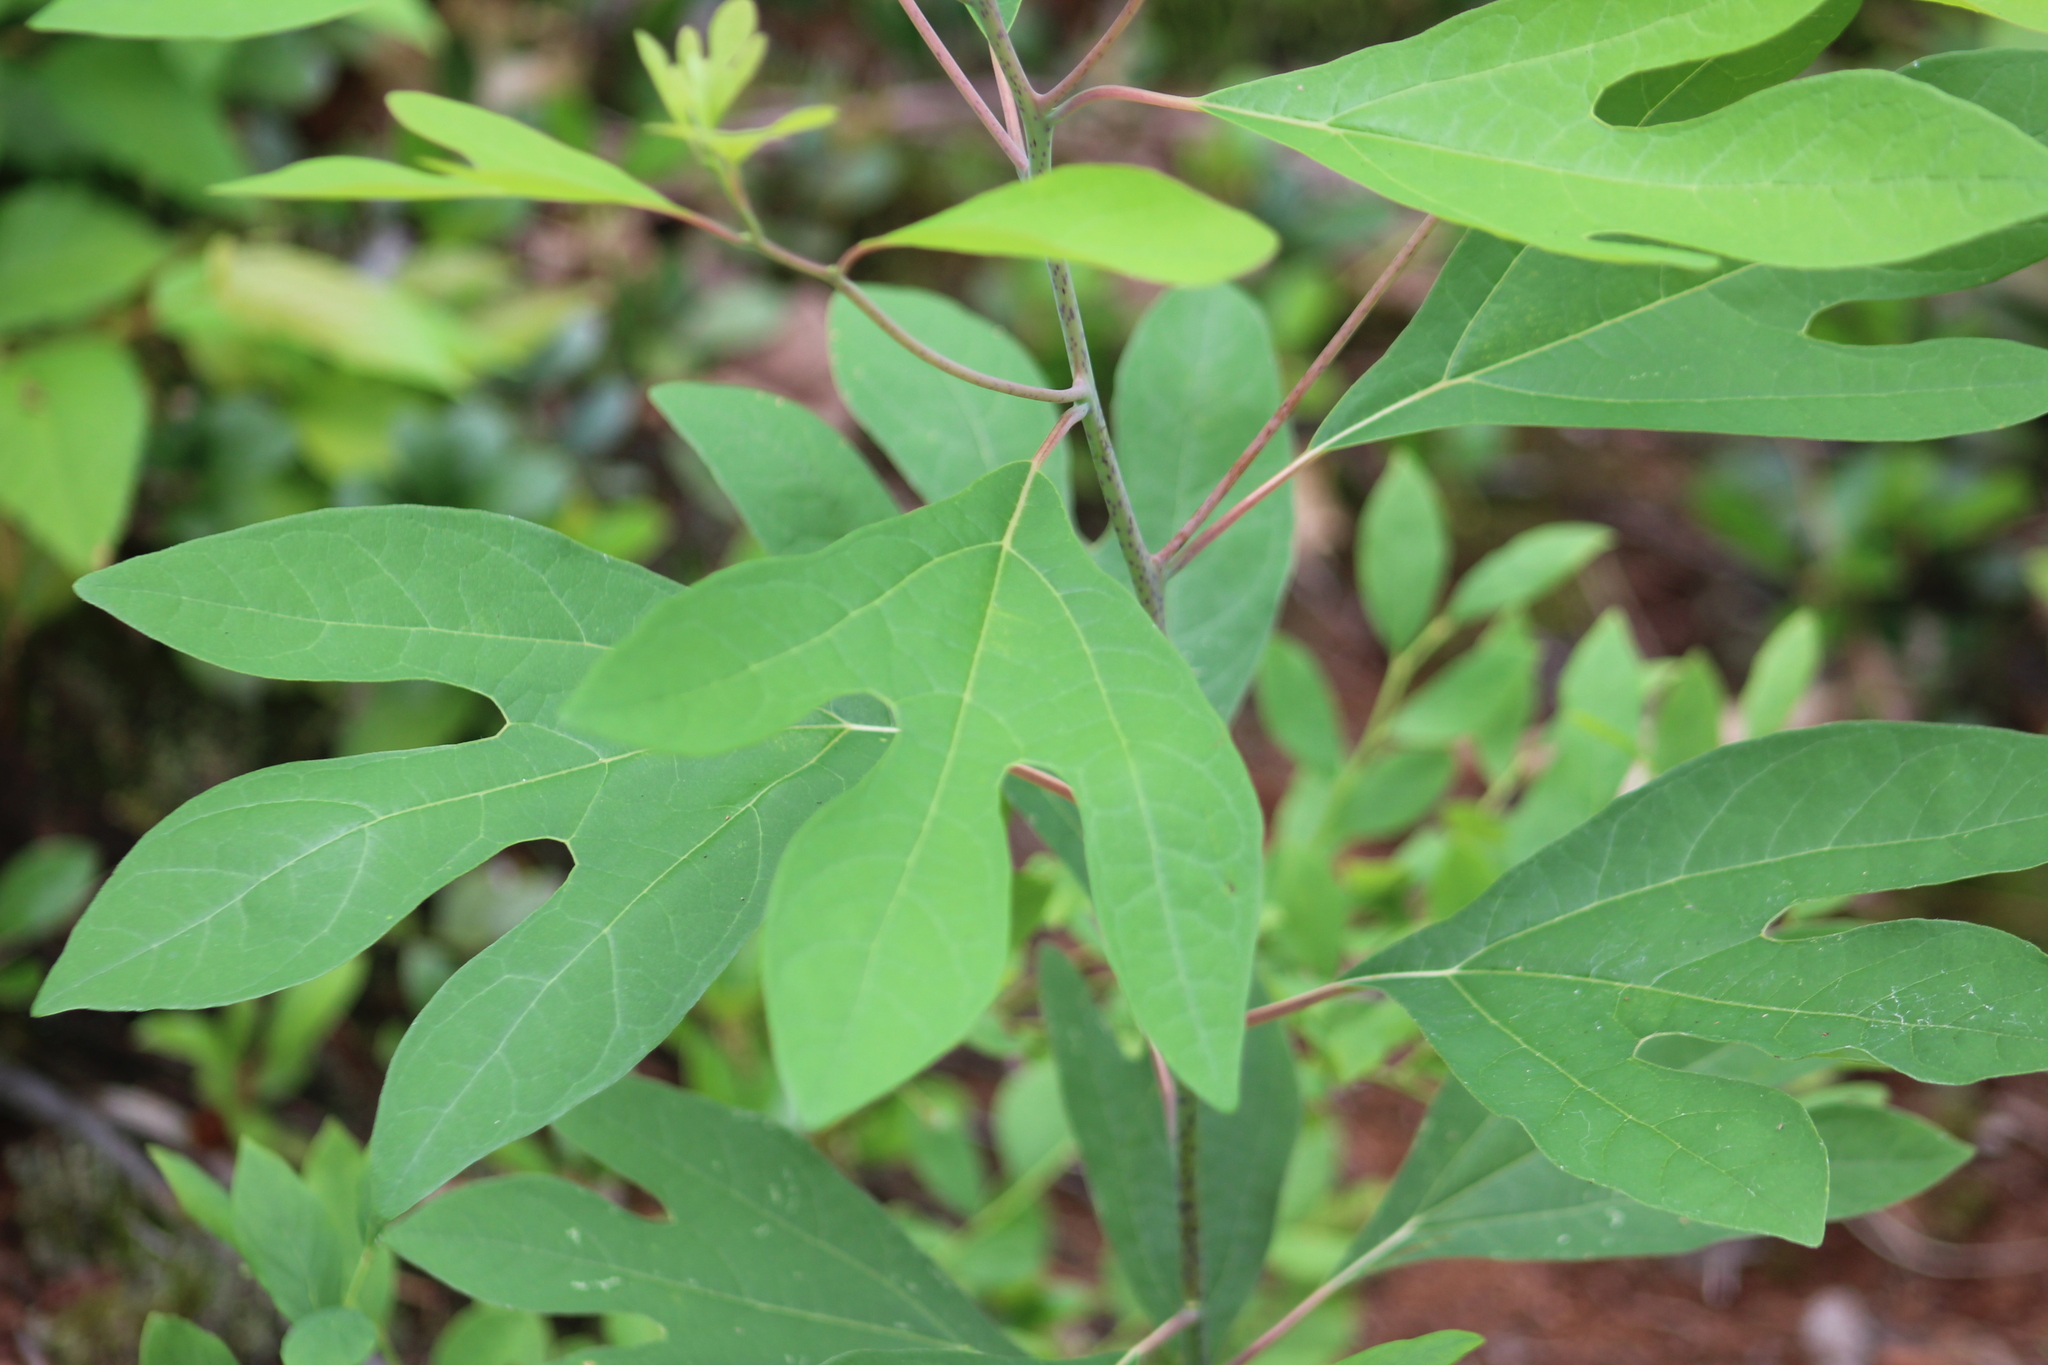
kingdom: Plantae
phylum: Tracheophyta
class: Magnoliopsida
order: Laurales
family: Lauraceae
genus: Sassafras
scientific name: Sassafras albidum
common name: Sassafras
